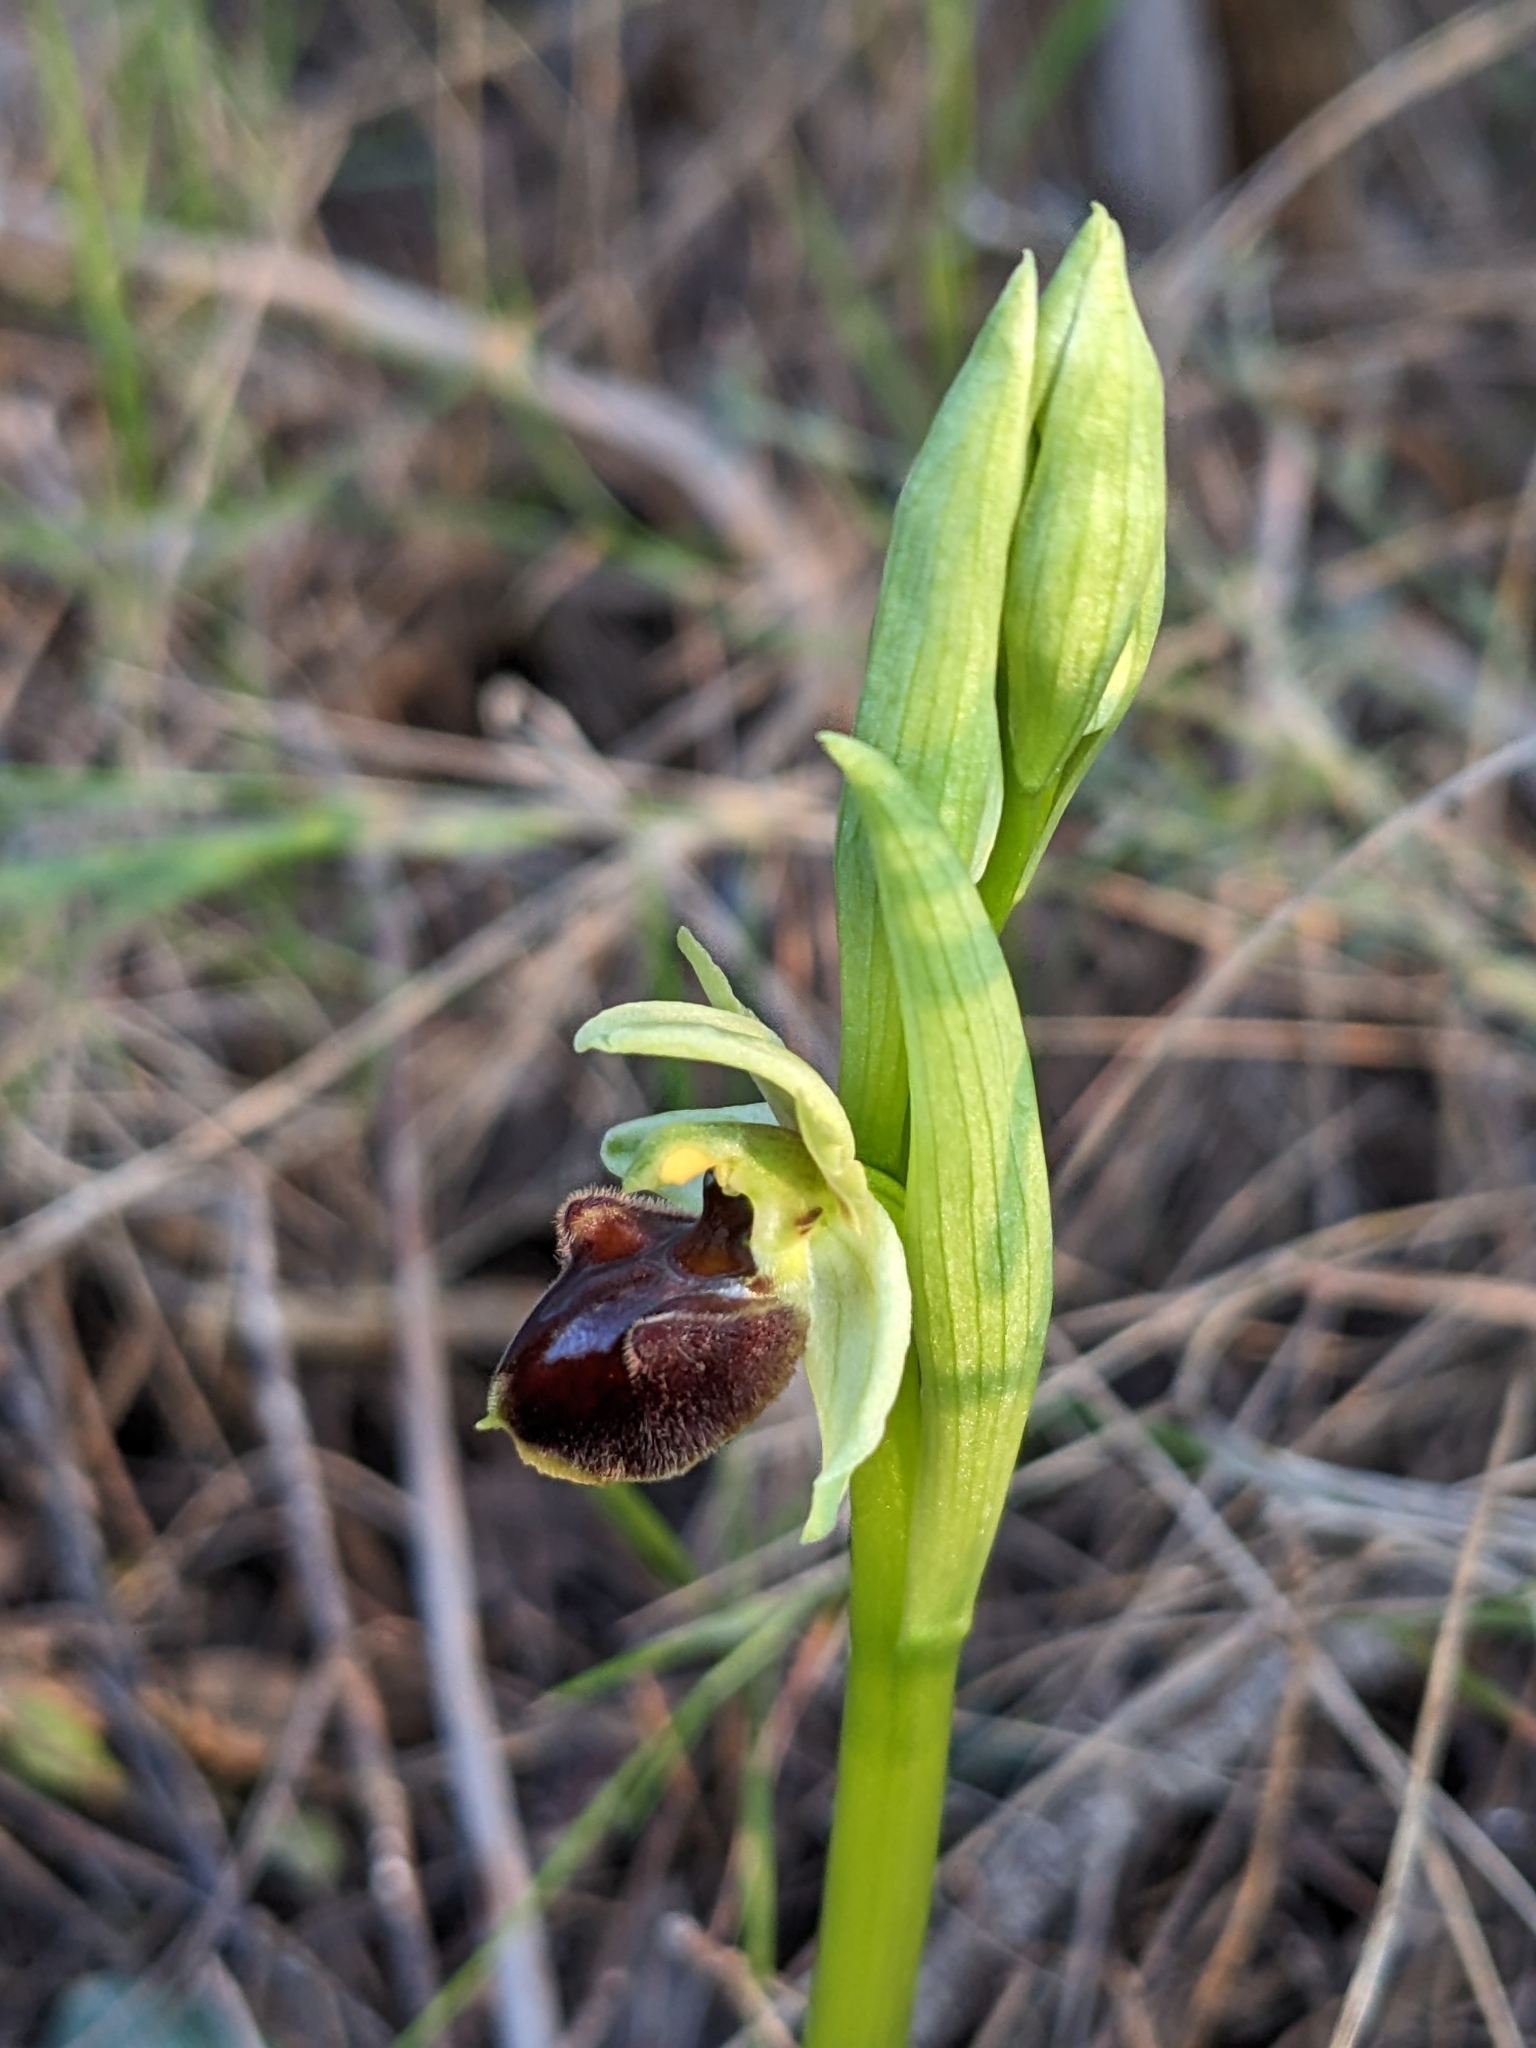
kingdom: Plantae
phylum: Tracheophyta
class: Liliopsida
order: Asparagales
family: Orchidaceae
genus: Ophrys
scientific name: Ophrys sphegodes
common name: Early spider-orchid
